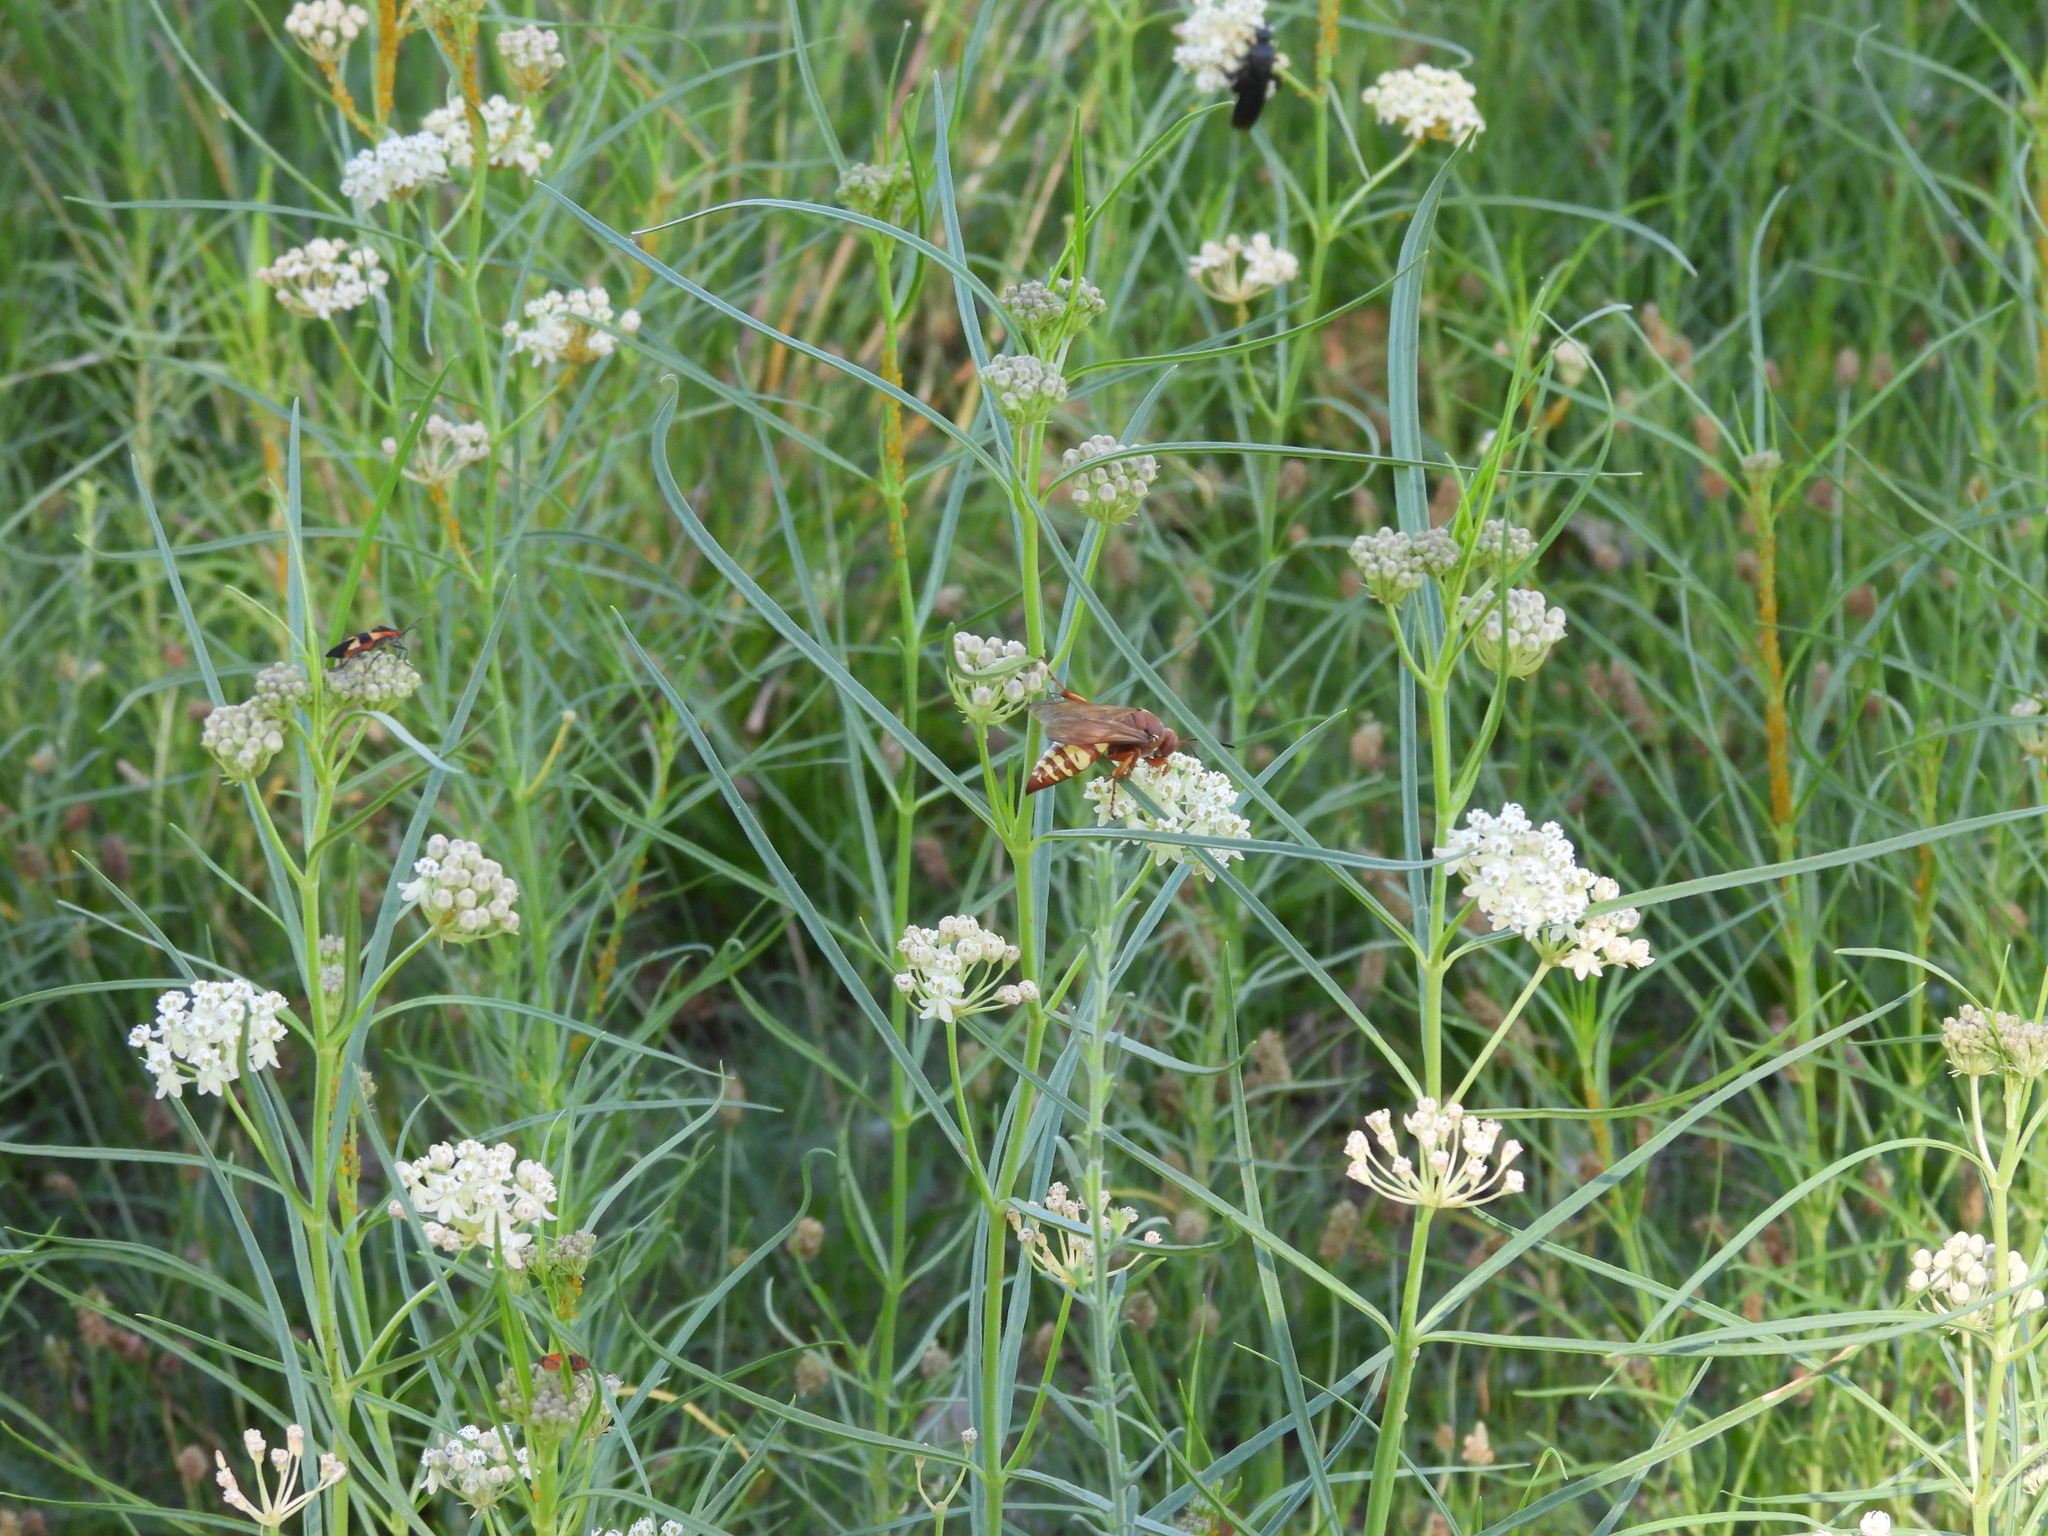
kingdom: Animalia
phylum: Arthropoda
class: Insecta
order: Hymenoptera
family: Crabronidae
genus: Sphecius
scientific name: Sphecius grandis
